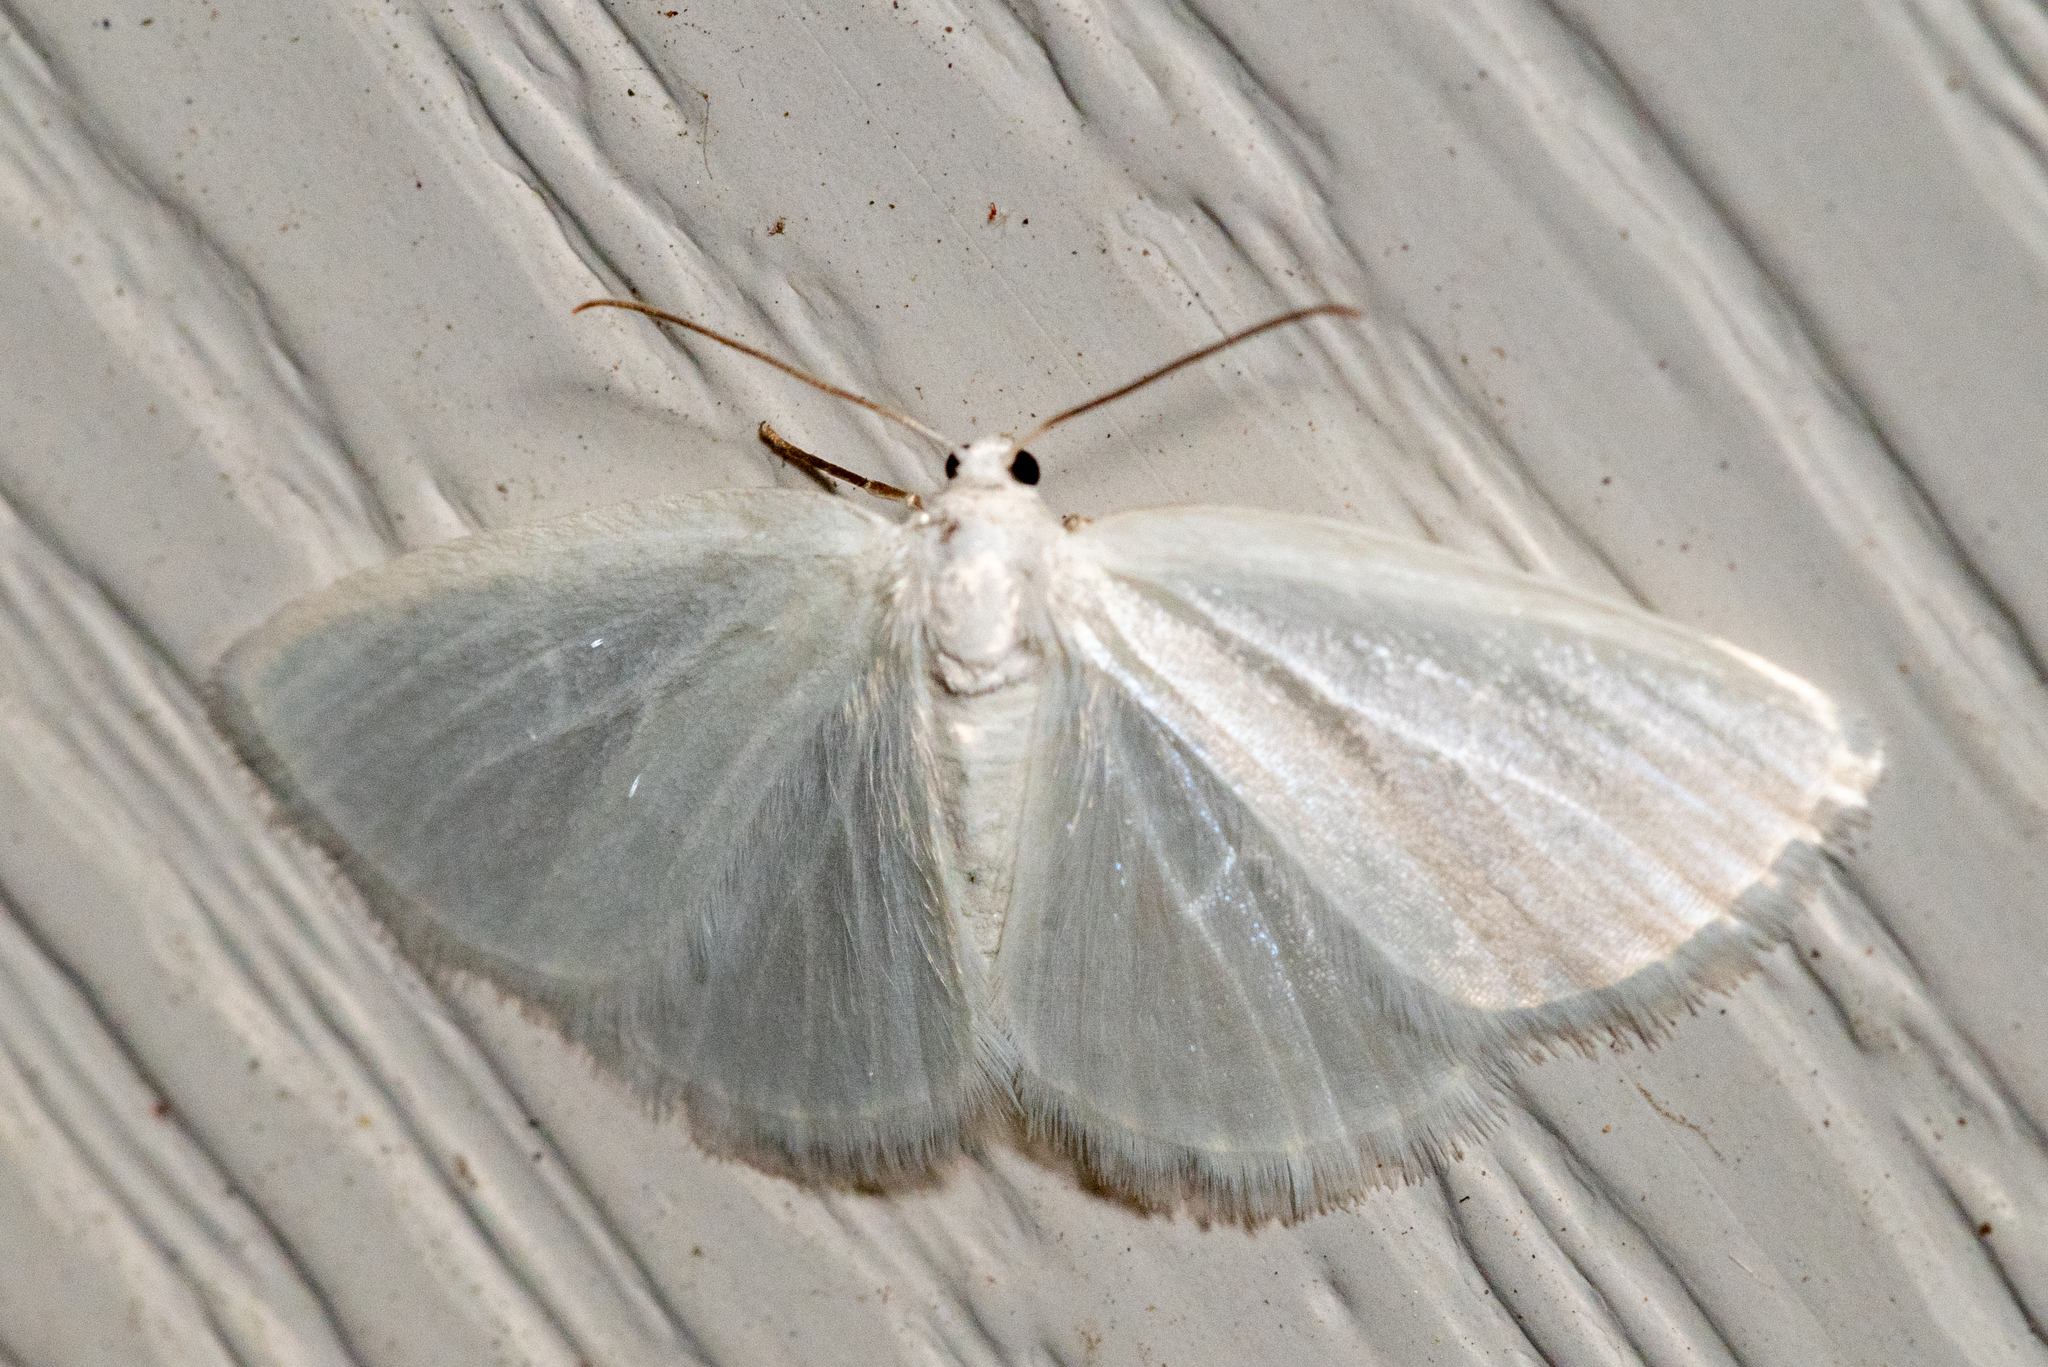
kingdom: Animalia
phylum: Arthropoda
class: Insecta
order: Lepidoptera
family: Geometridae
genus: Lomographa
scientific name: Lomographa vestaliata
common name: White spring moth
